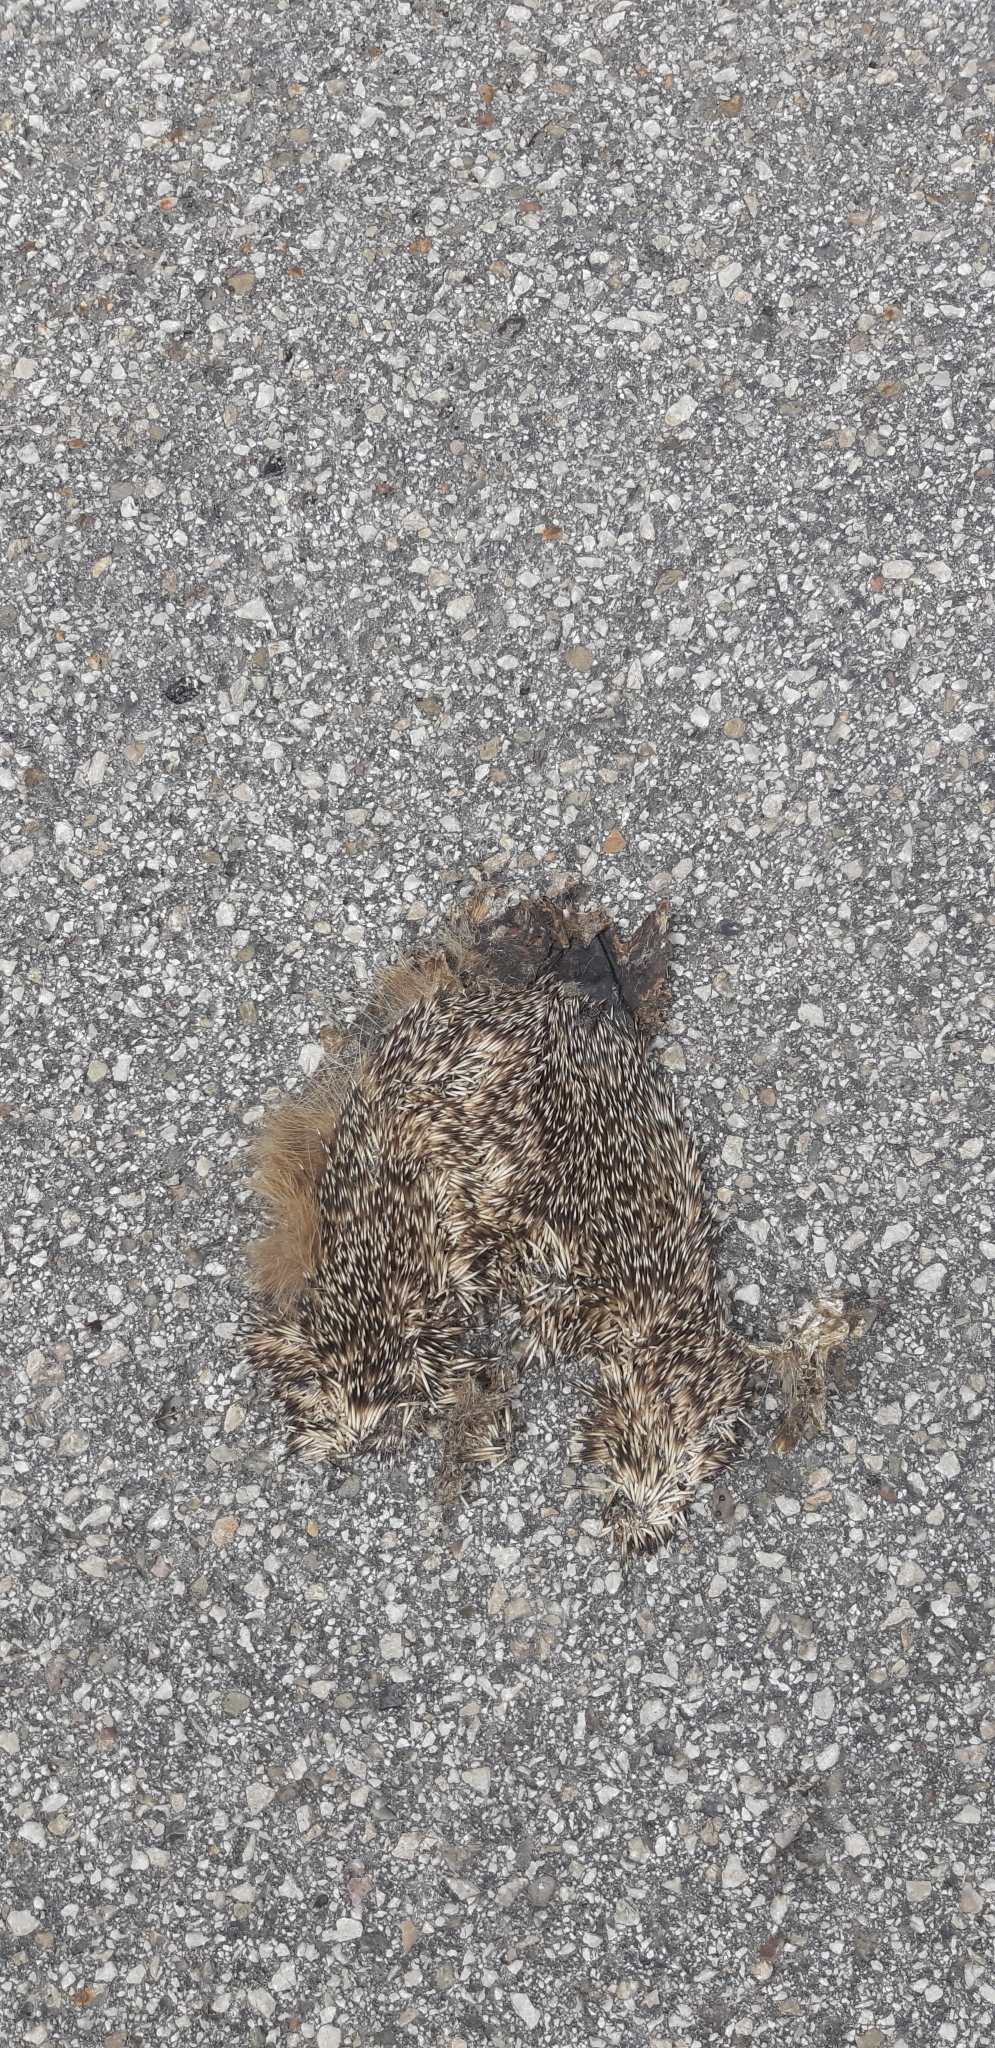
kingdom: Animalia
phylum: Chordata
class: Mammalia
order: Erinaceomorpha
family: Erinaceidae
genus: Erinaceus
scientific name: Erinaceus europaeus
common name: West european hedgehog
